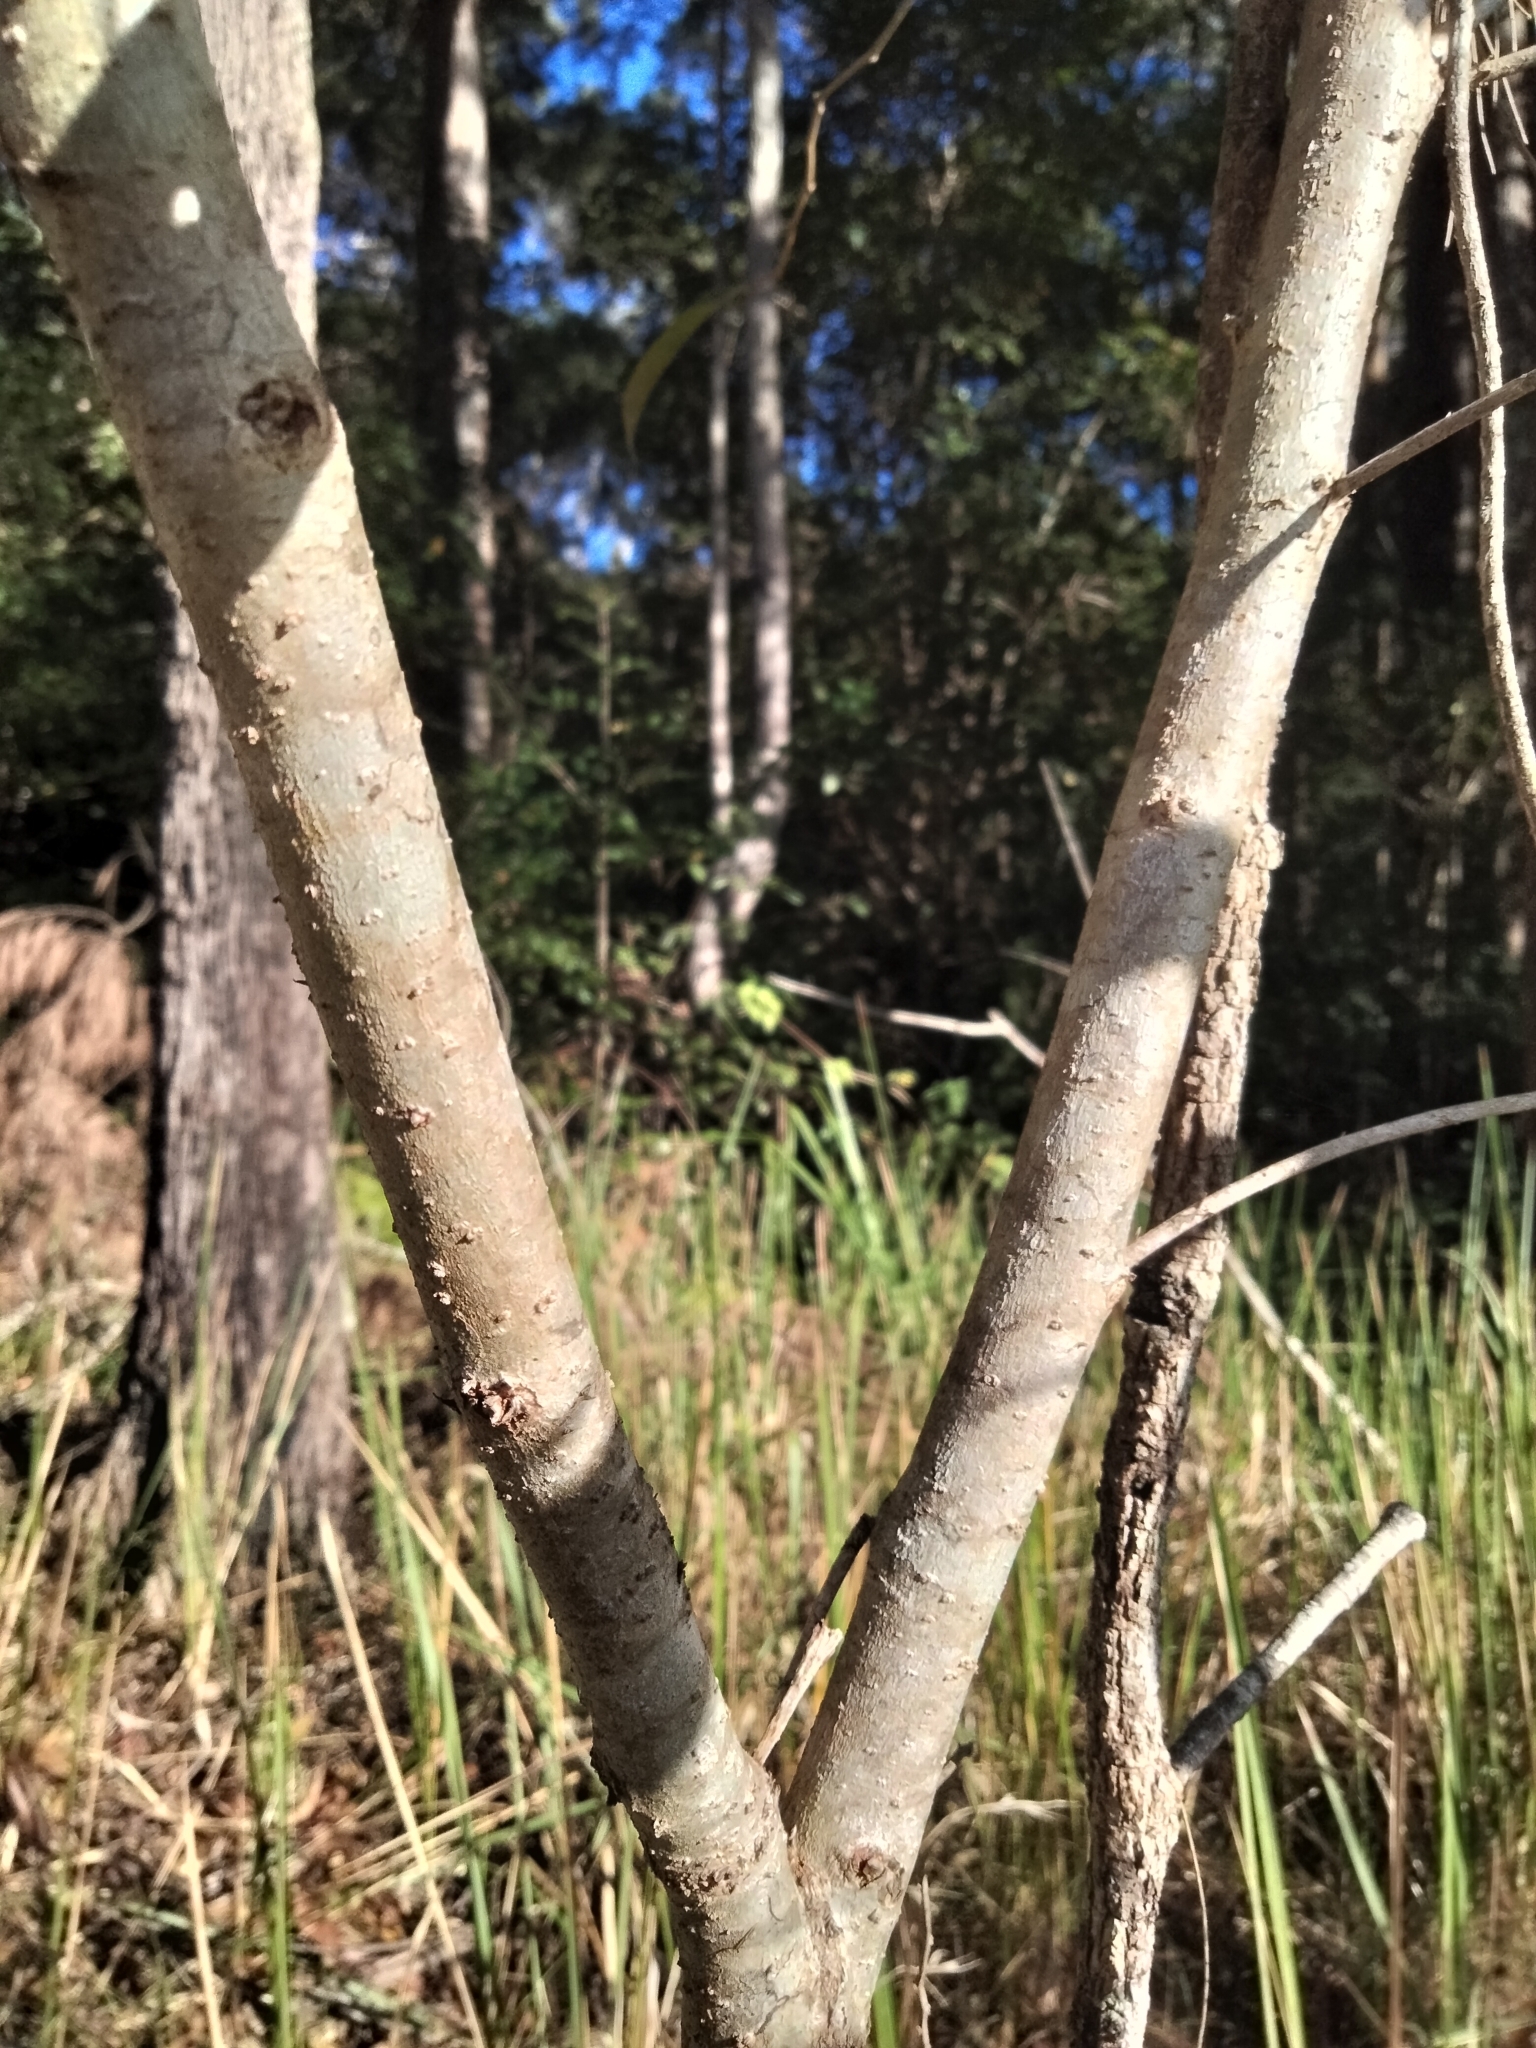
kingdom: Plantae
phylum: Tracheophyta
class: Magnoliopsida
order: Malpighiales
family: Phyllanthaceae
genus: Glochidion
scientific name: Glochidion ferdinandi
